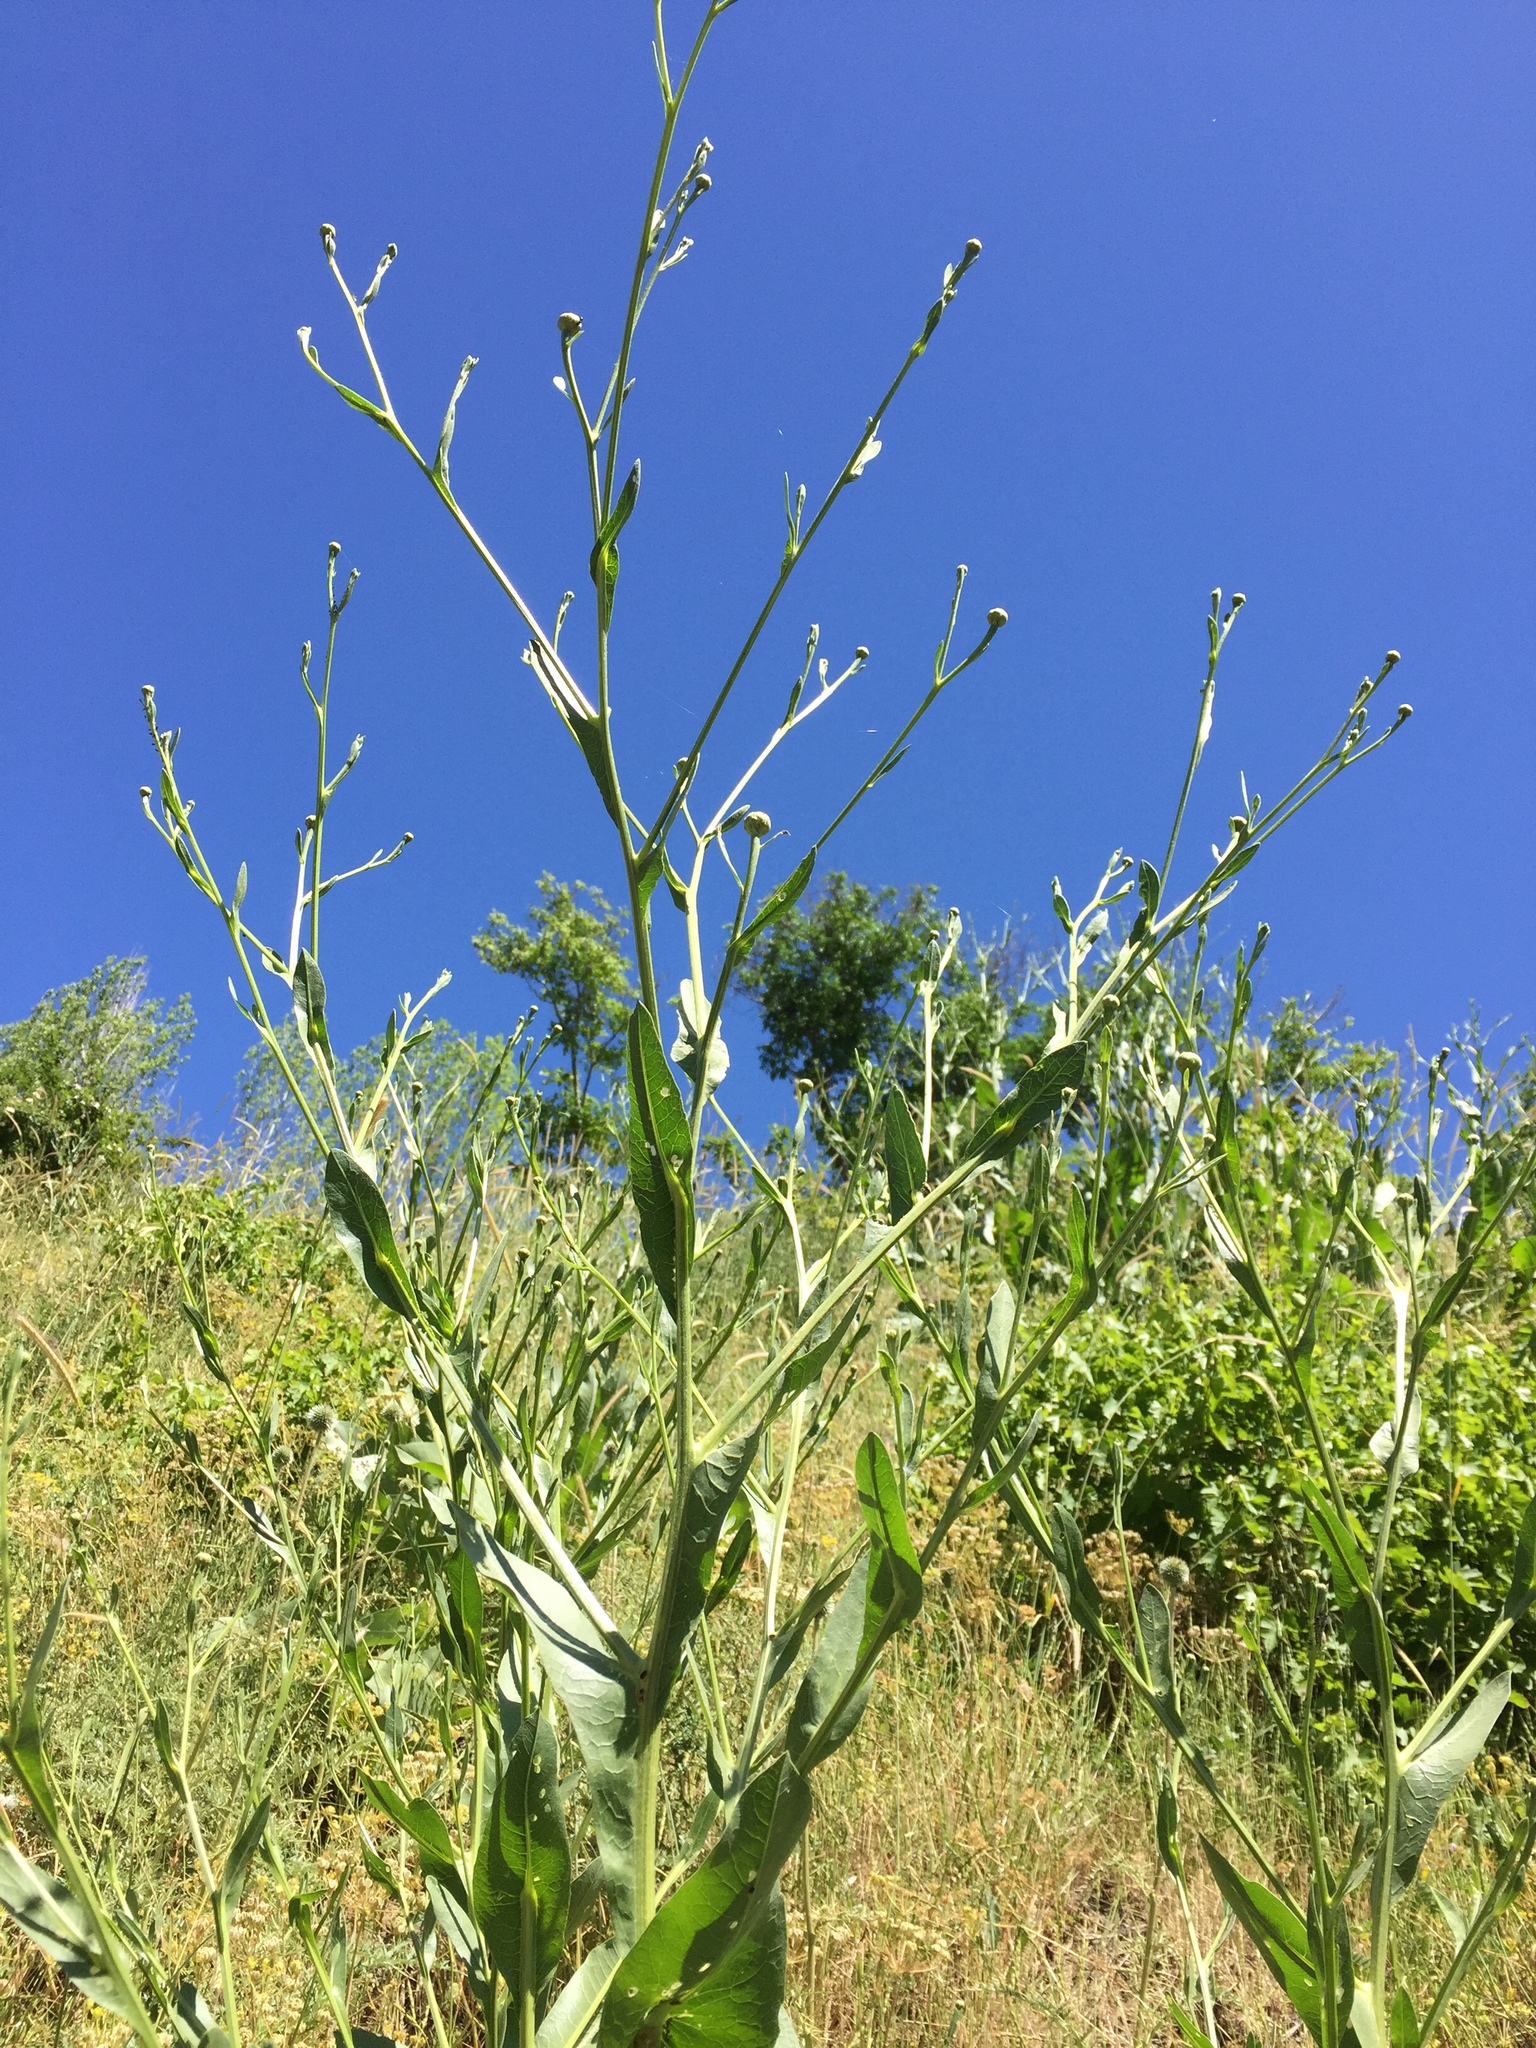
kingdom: Plantae
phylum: Tracheophyta
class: Magnoliopsida
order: Asterales
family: Asteraceae
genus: Centaurea
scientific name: Centaurea behen
